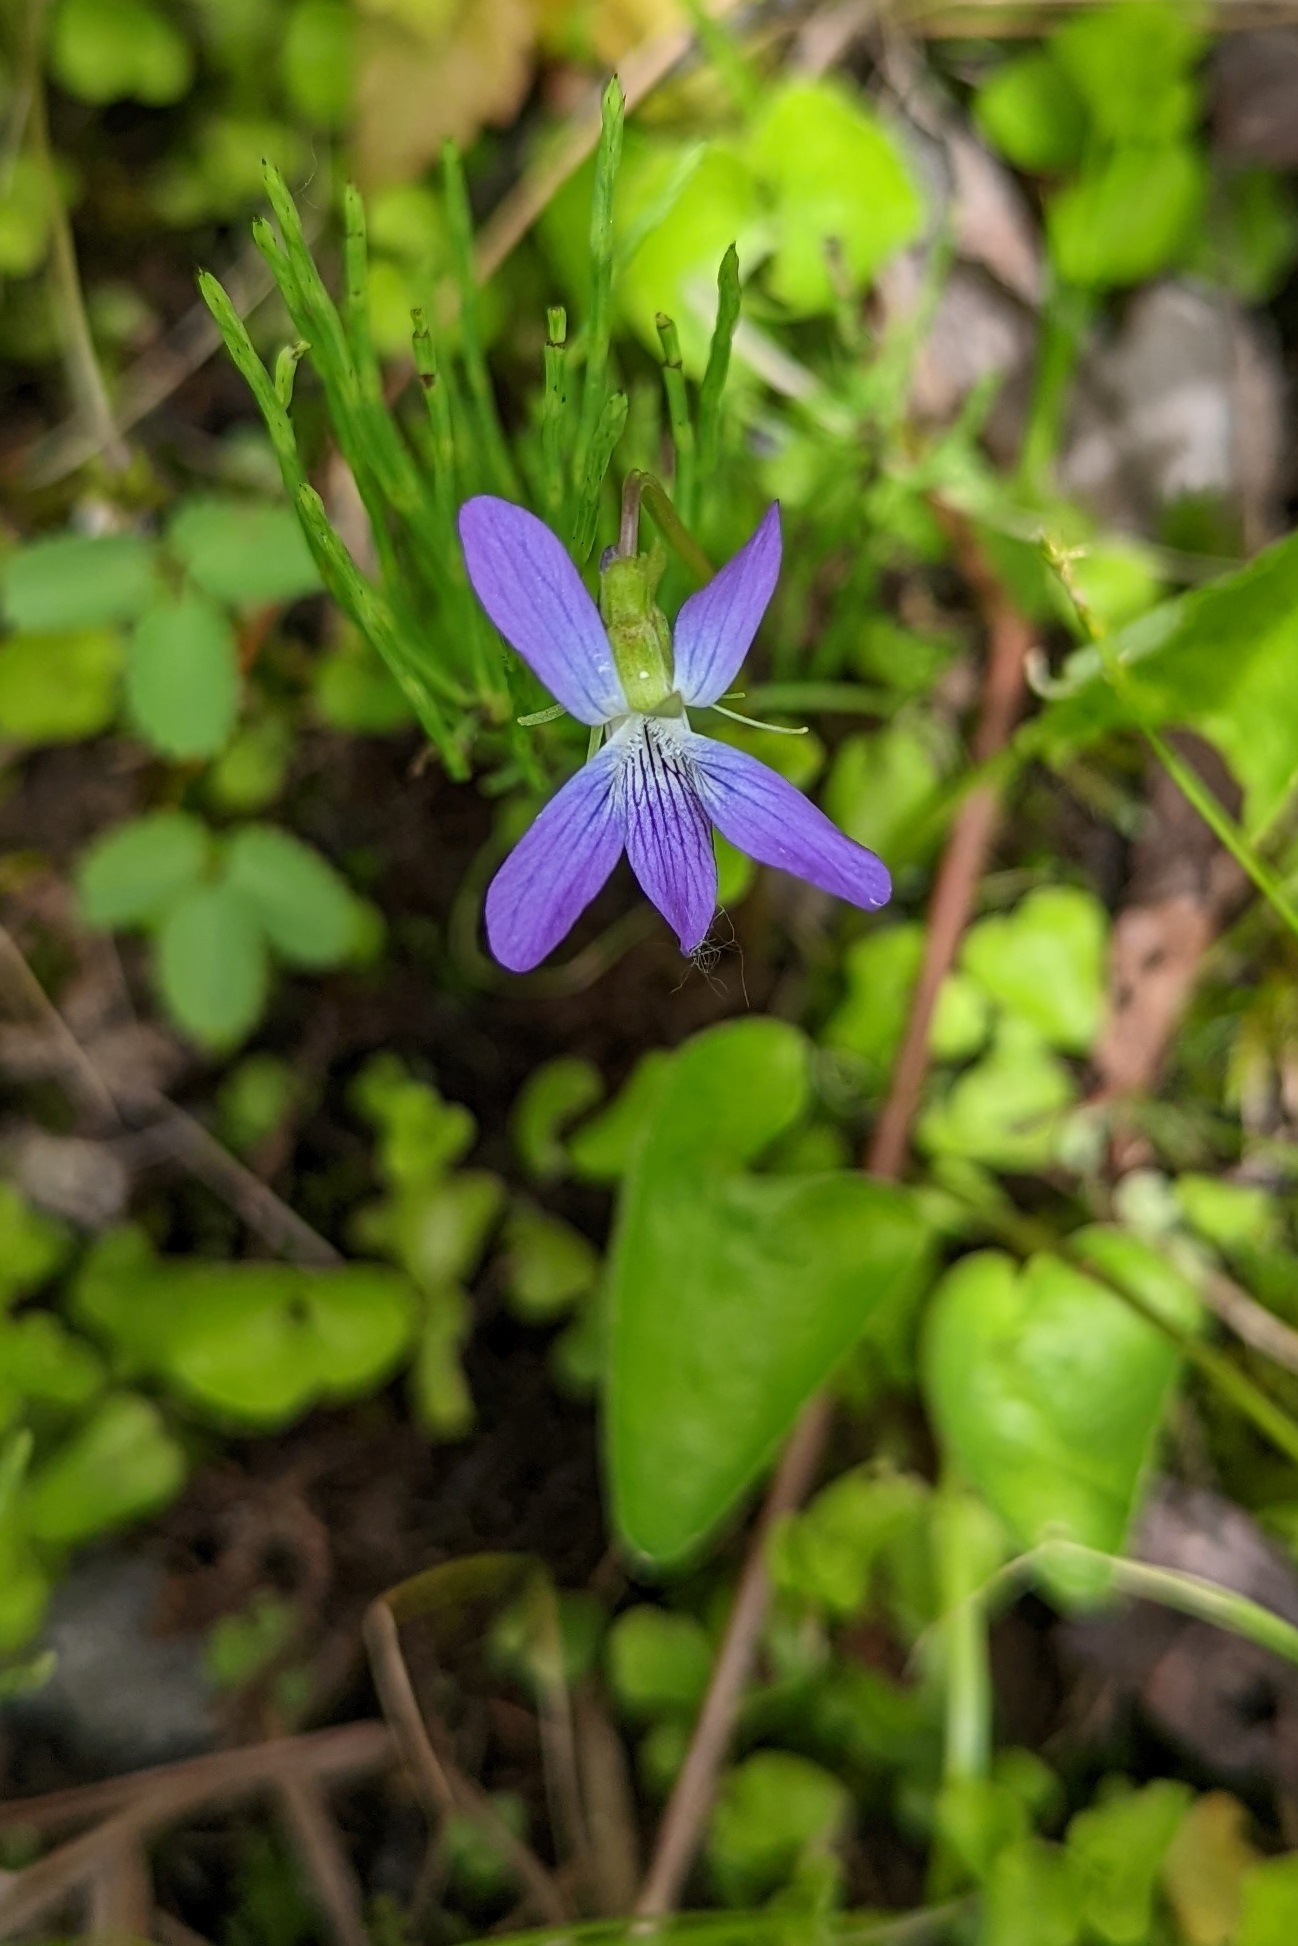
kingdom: Plantae
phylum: Tracheophyta
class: Magnoliopsida
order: Malpighiales
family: Violaceae
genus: Viola
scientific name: Viola cucullata
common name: Marsh blue violet
